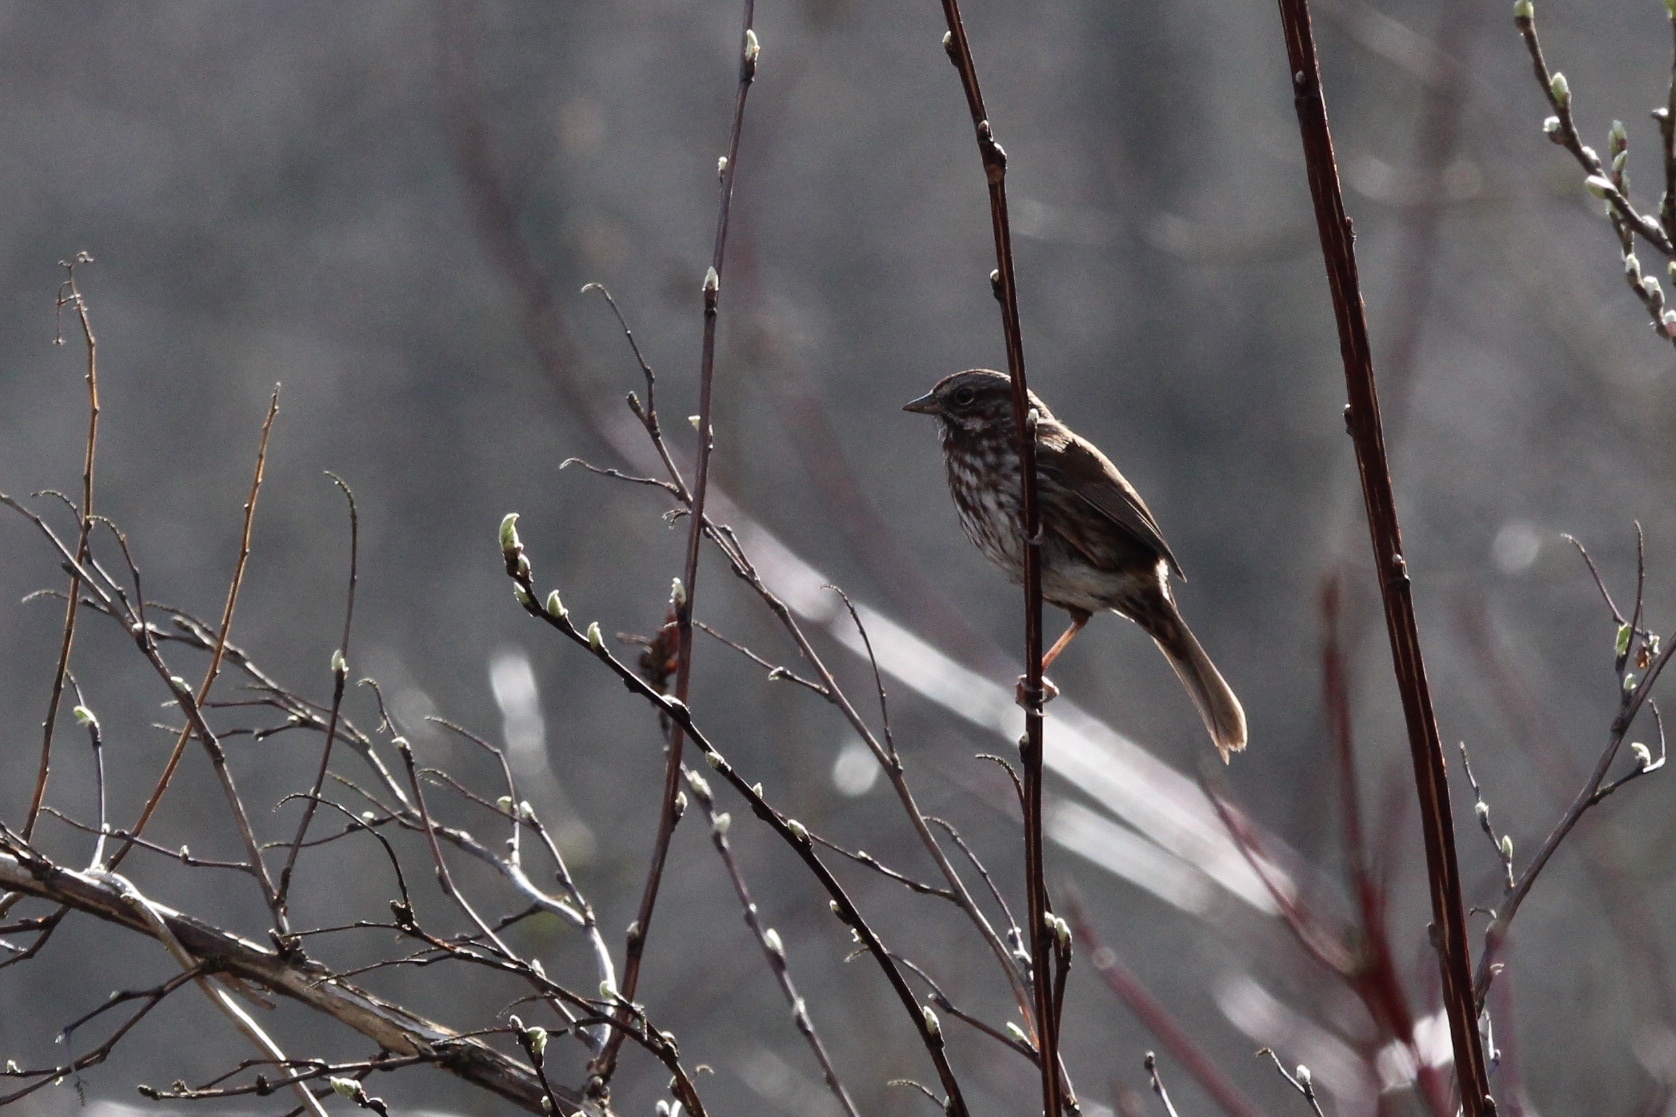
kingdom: Animalia
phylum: Chordata
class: Aves
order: Passeriformes
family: Passerellidae
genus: Melospiza
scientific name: Melospiza melodia
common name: Song sparrow
